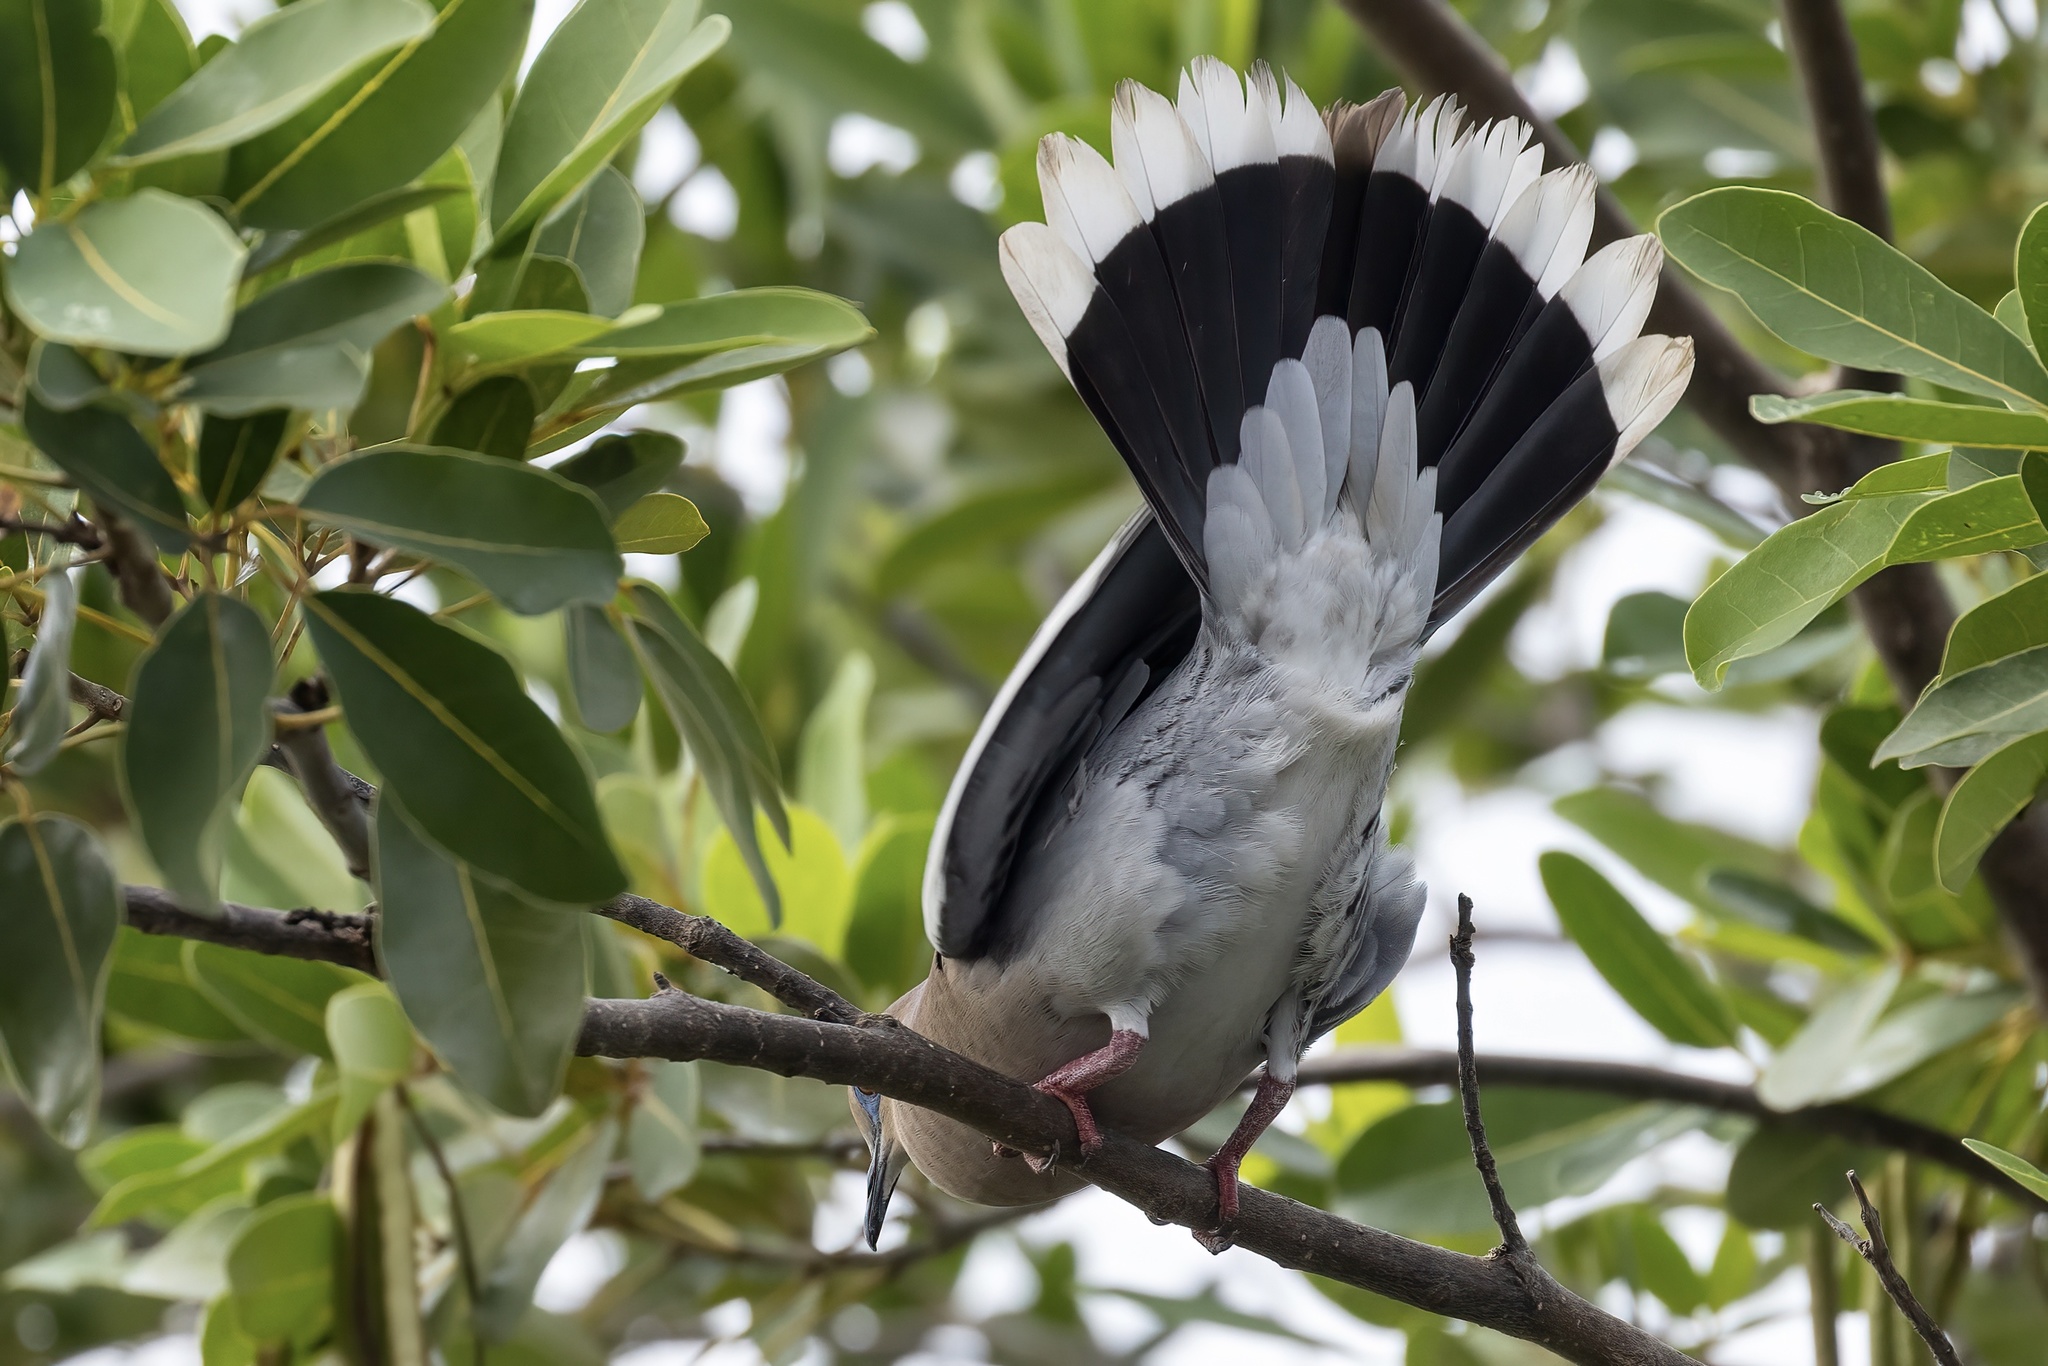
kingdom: Animalia
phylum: Chordata
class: Aves
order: Columbiformes
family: Columbidae
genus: Zenaida
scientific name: Zenaida asiatica
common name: White-winged dove
